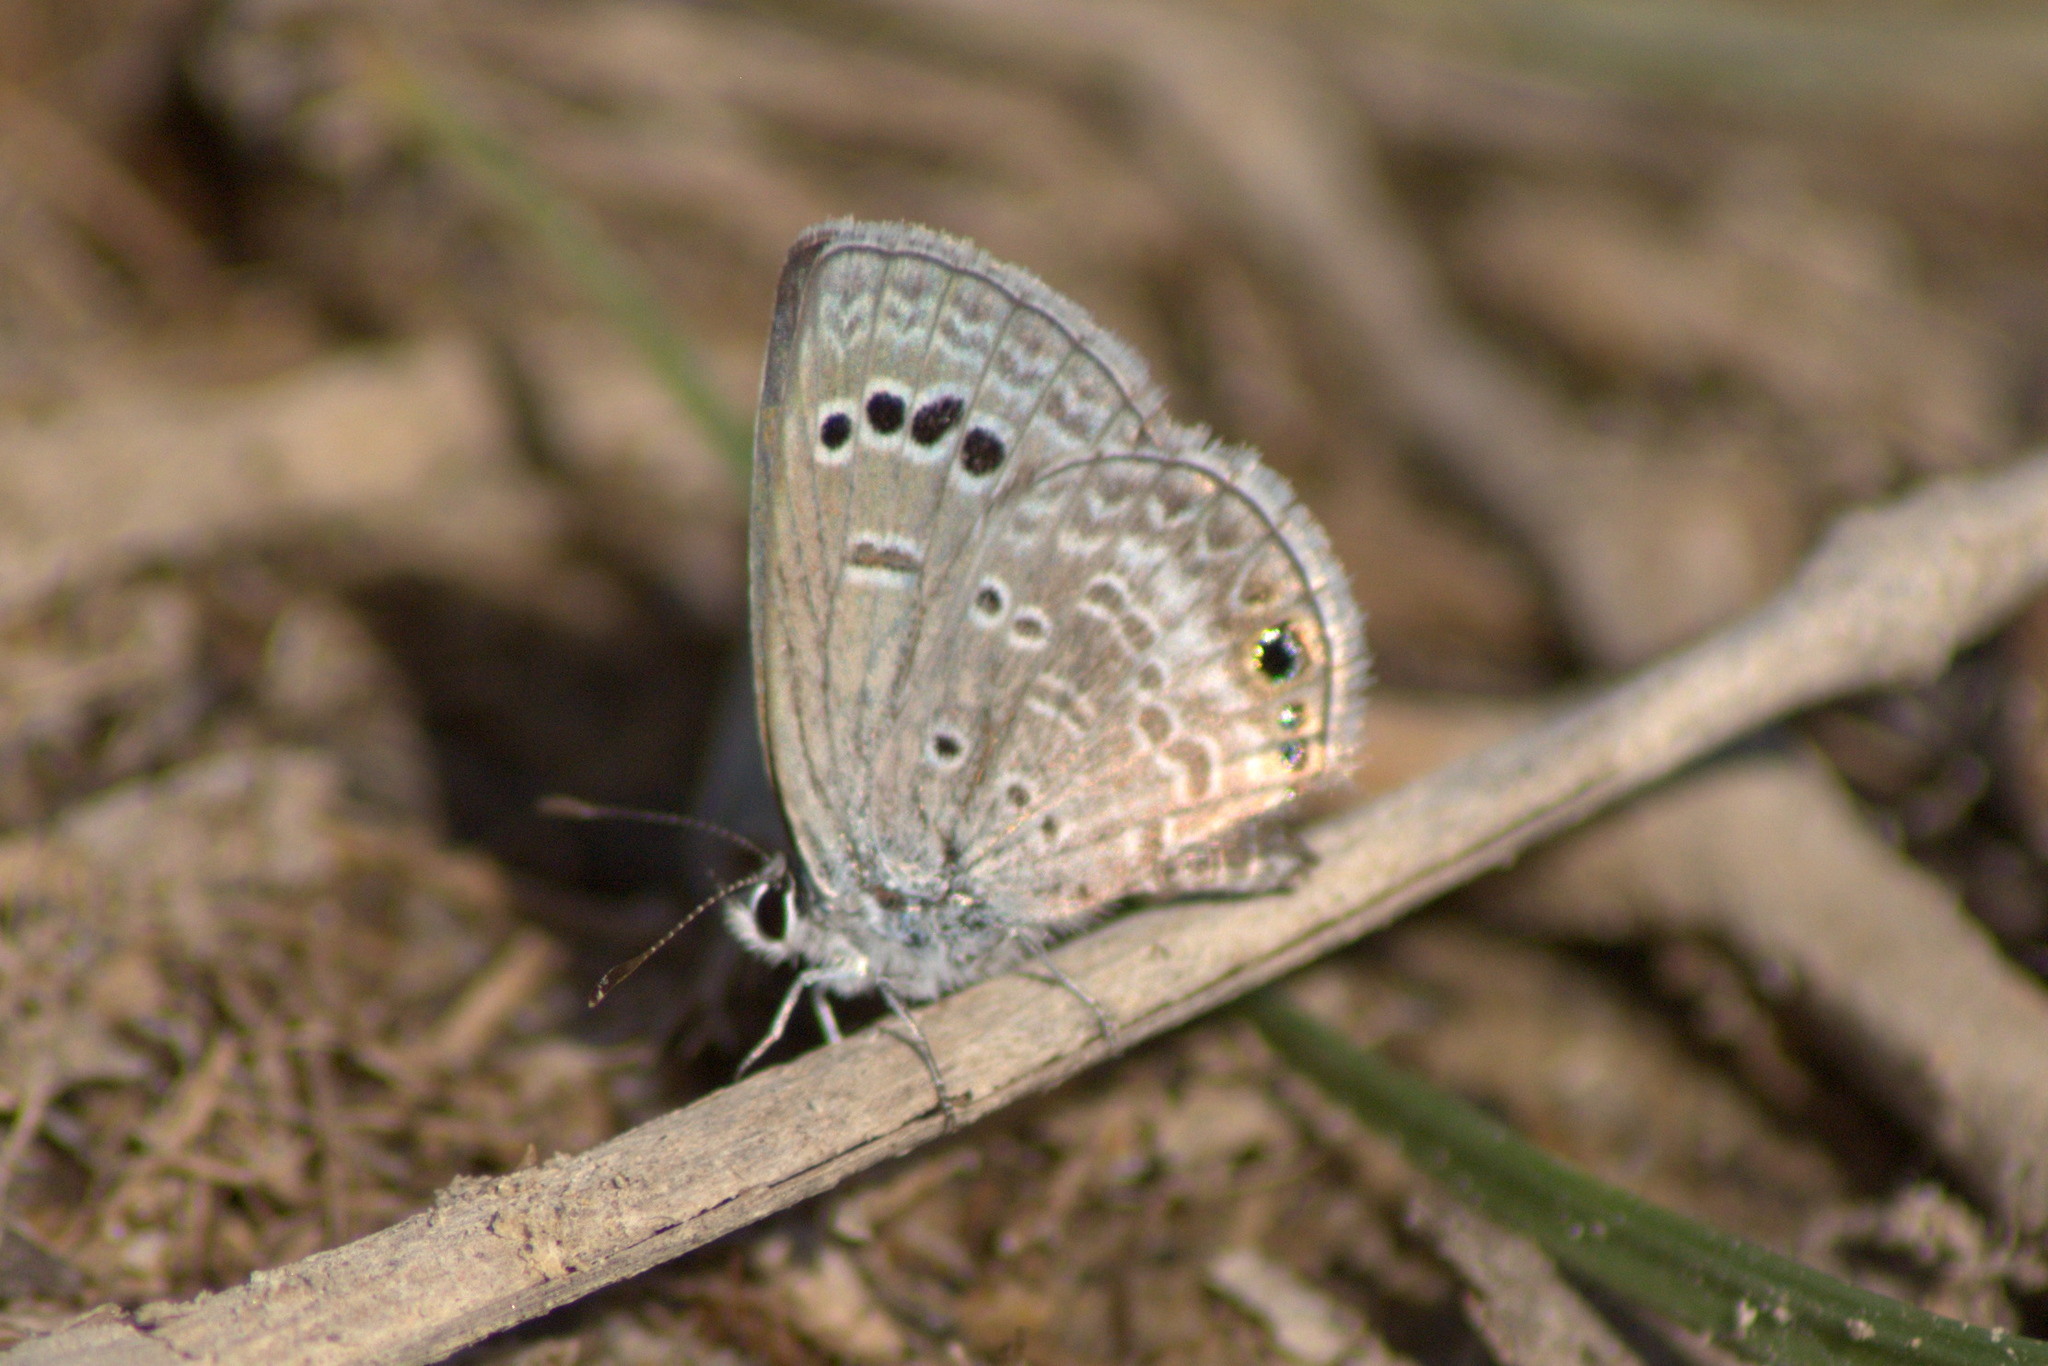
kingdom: Animalia
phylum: Arthropoda
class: Insecta
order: Lepidoptera
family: Lycaenidae
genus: Echinargus
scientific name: Echinargus isola
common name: Reakirt's blue
